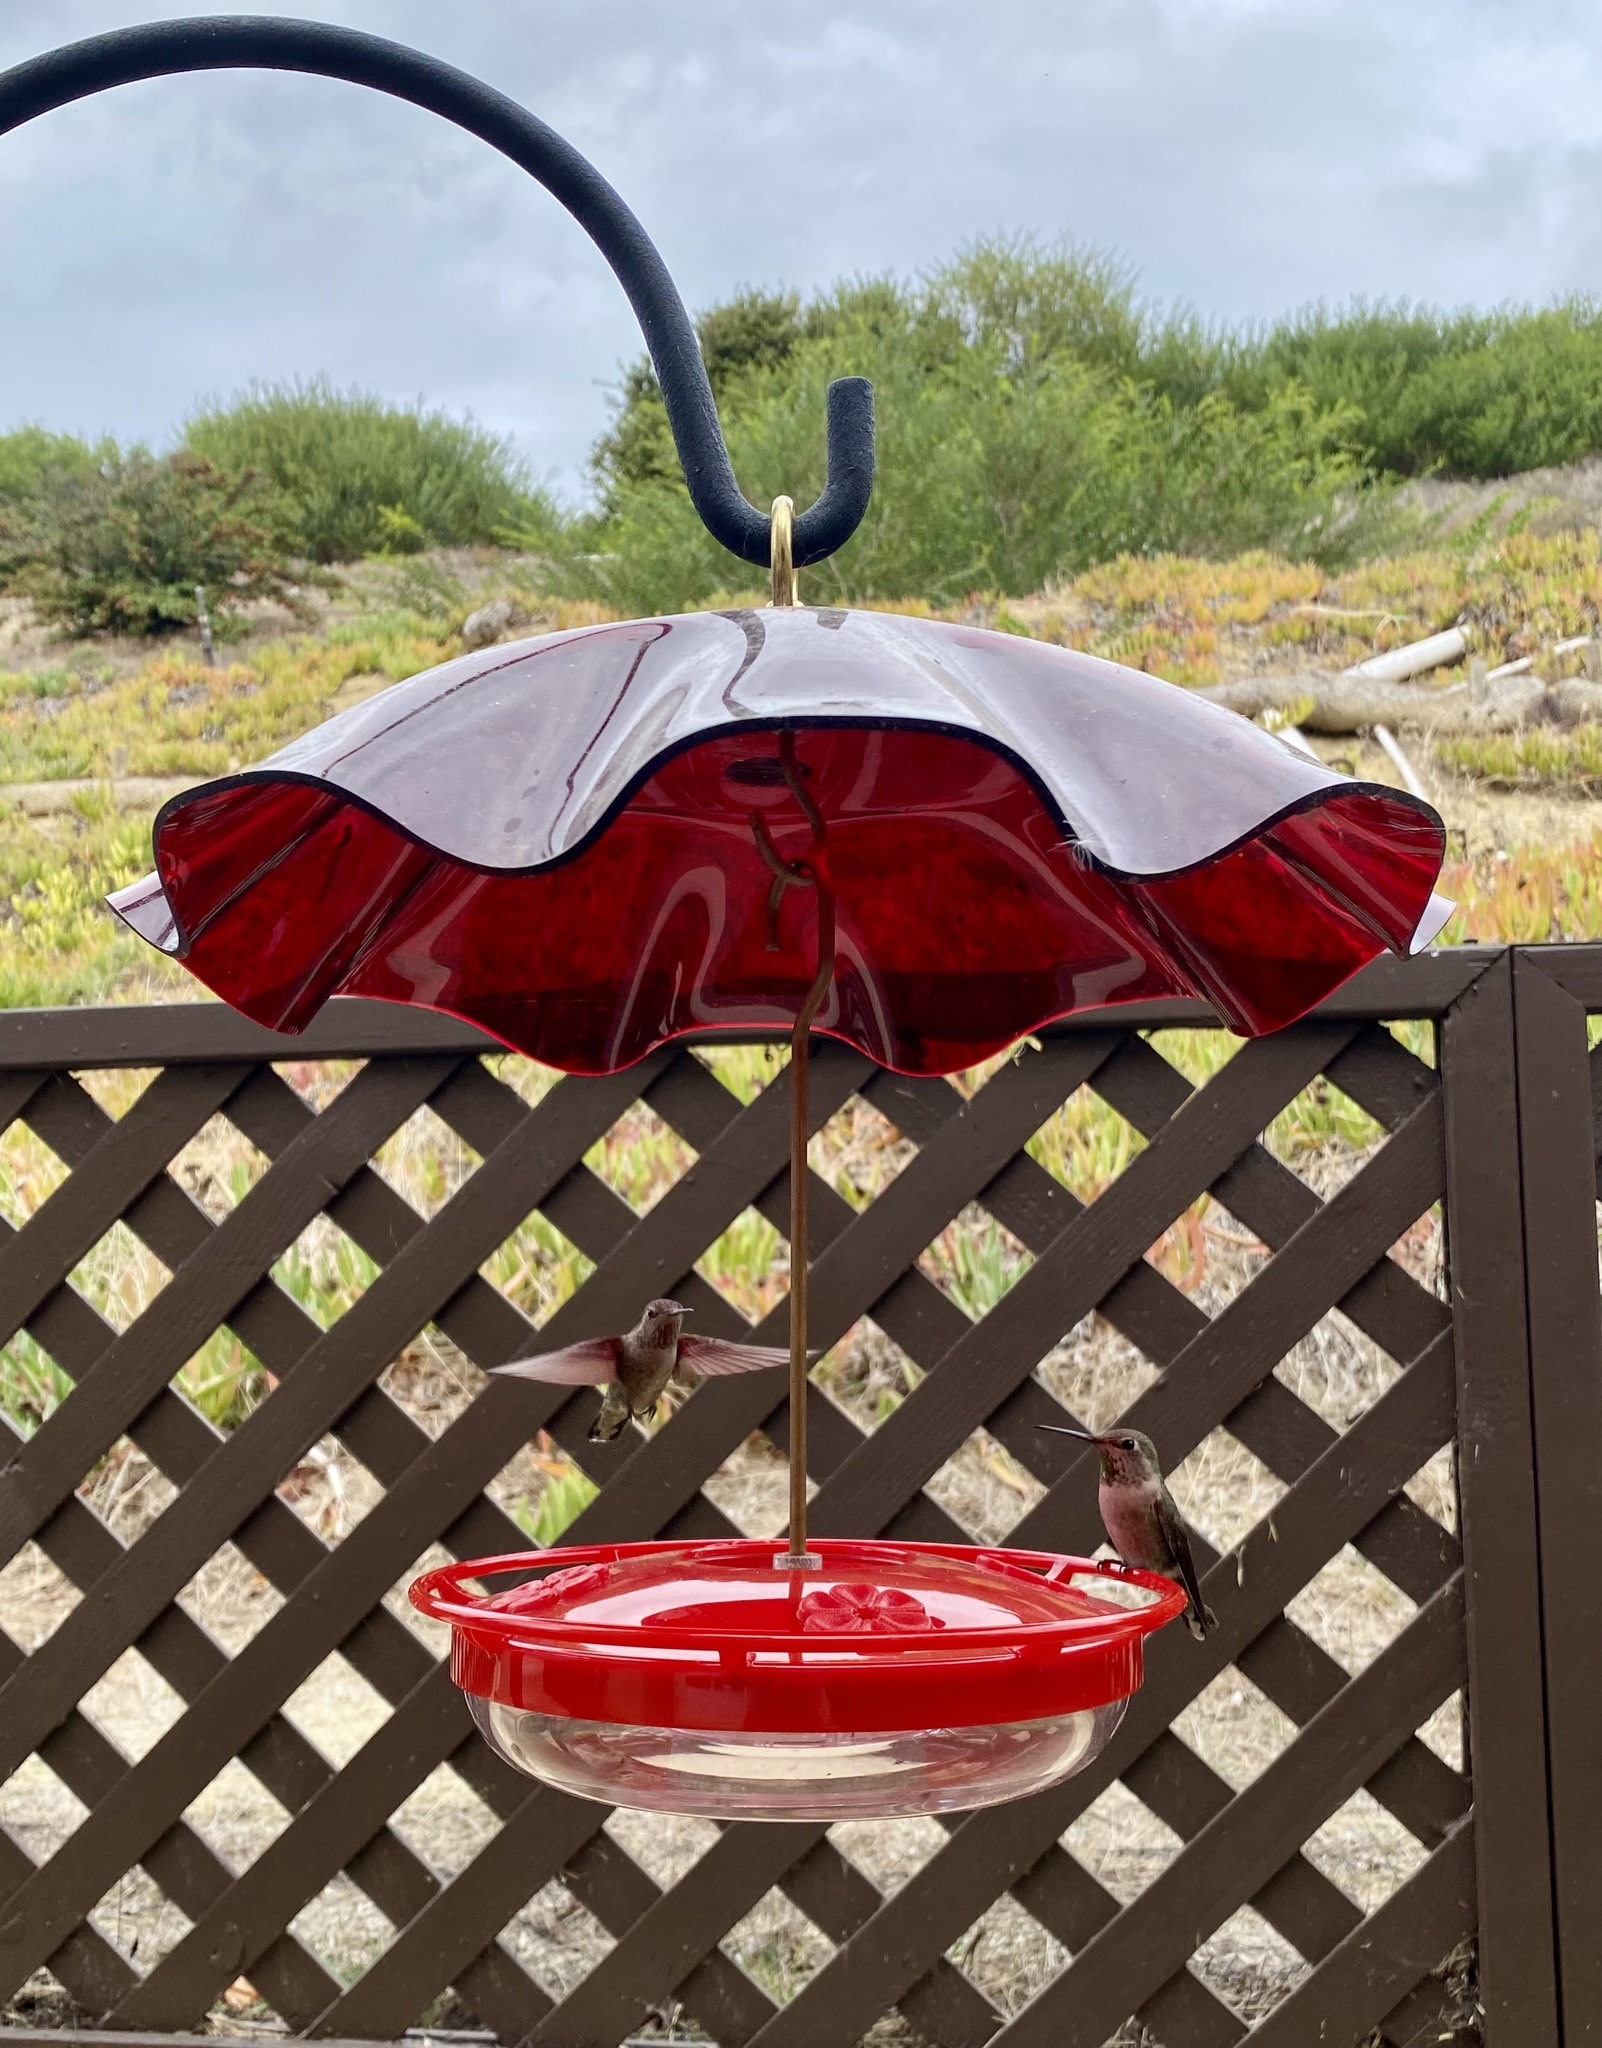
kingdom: Animalia
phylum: Chordata
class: Aves
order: Apodiformes
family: Trochilidae
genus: Calypte
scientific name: Calypte anna
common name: Anna's hummingbird
